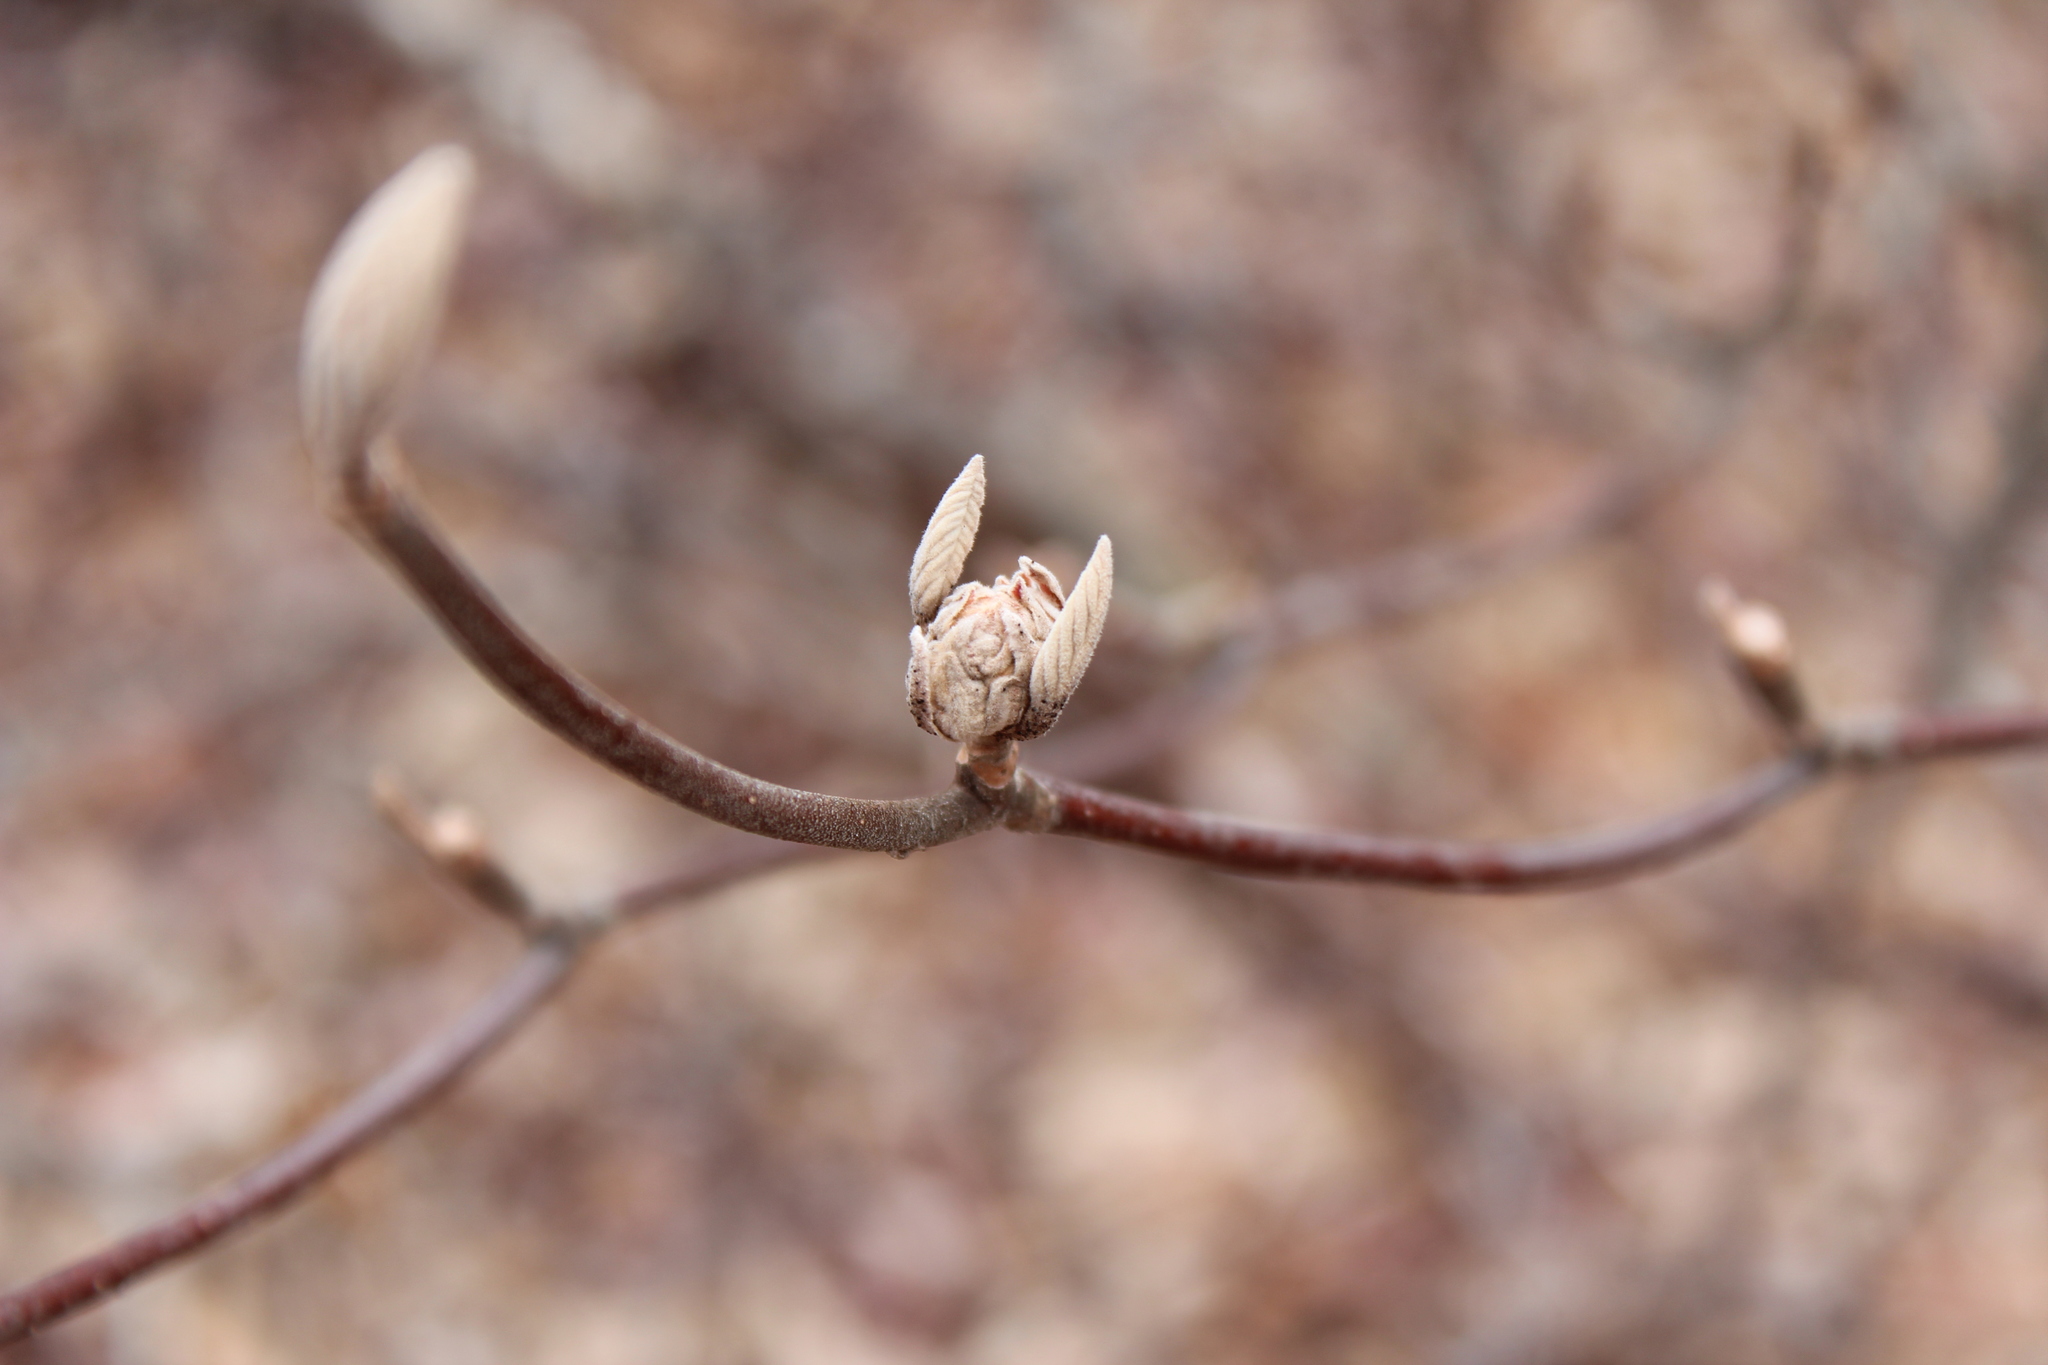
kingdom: Plantae
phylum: Tracheophyta
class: Magnoliopsida
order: Dipsacales
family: Viburnaceae
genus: Viburnum
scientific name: Viburnum lantanoides
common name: Hobblebush
